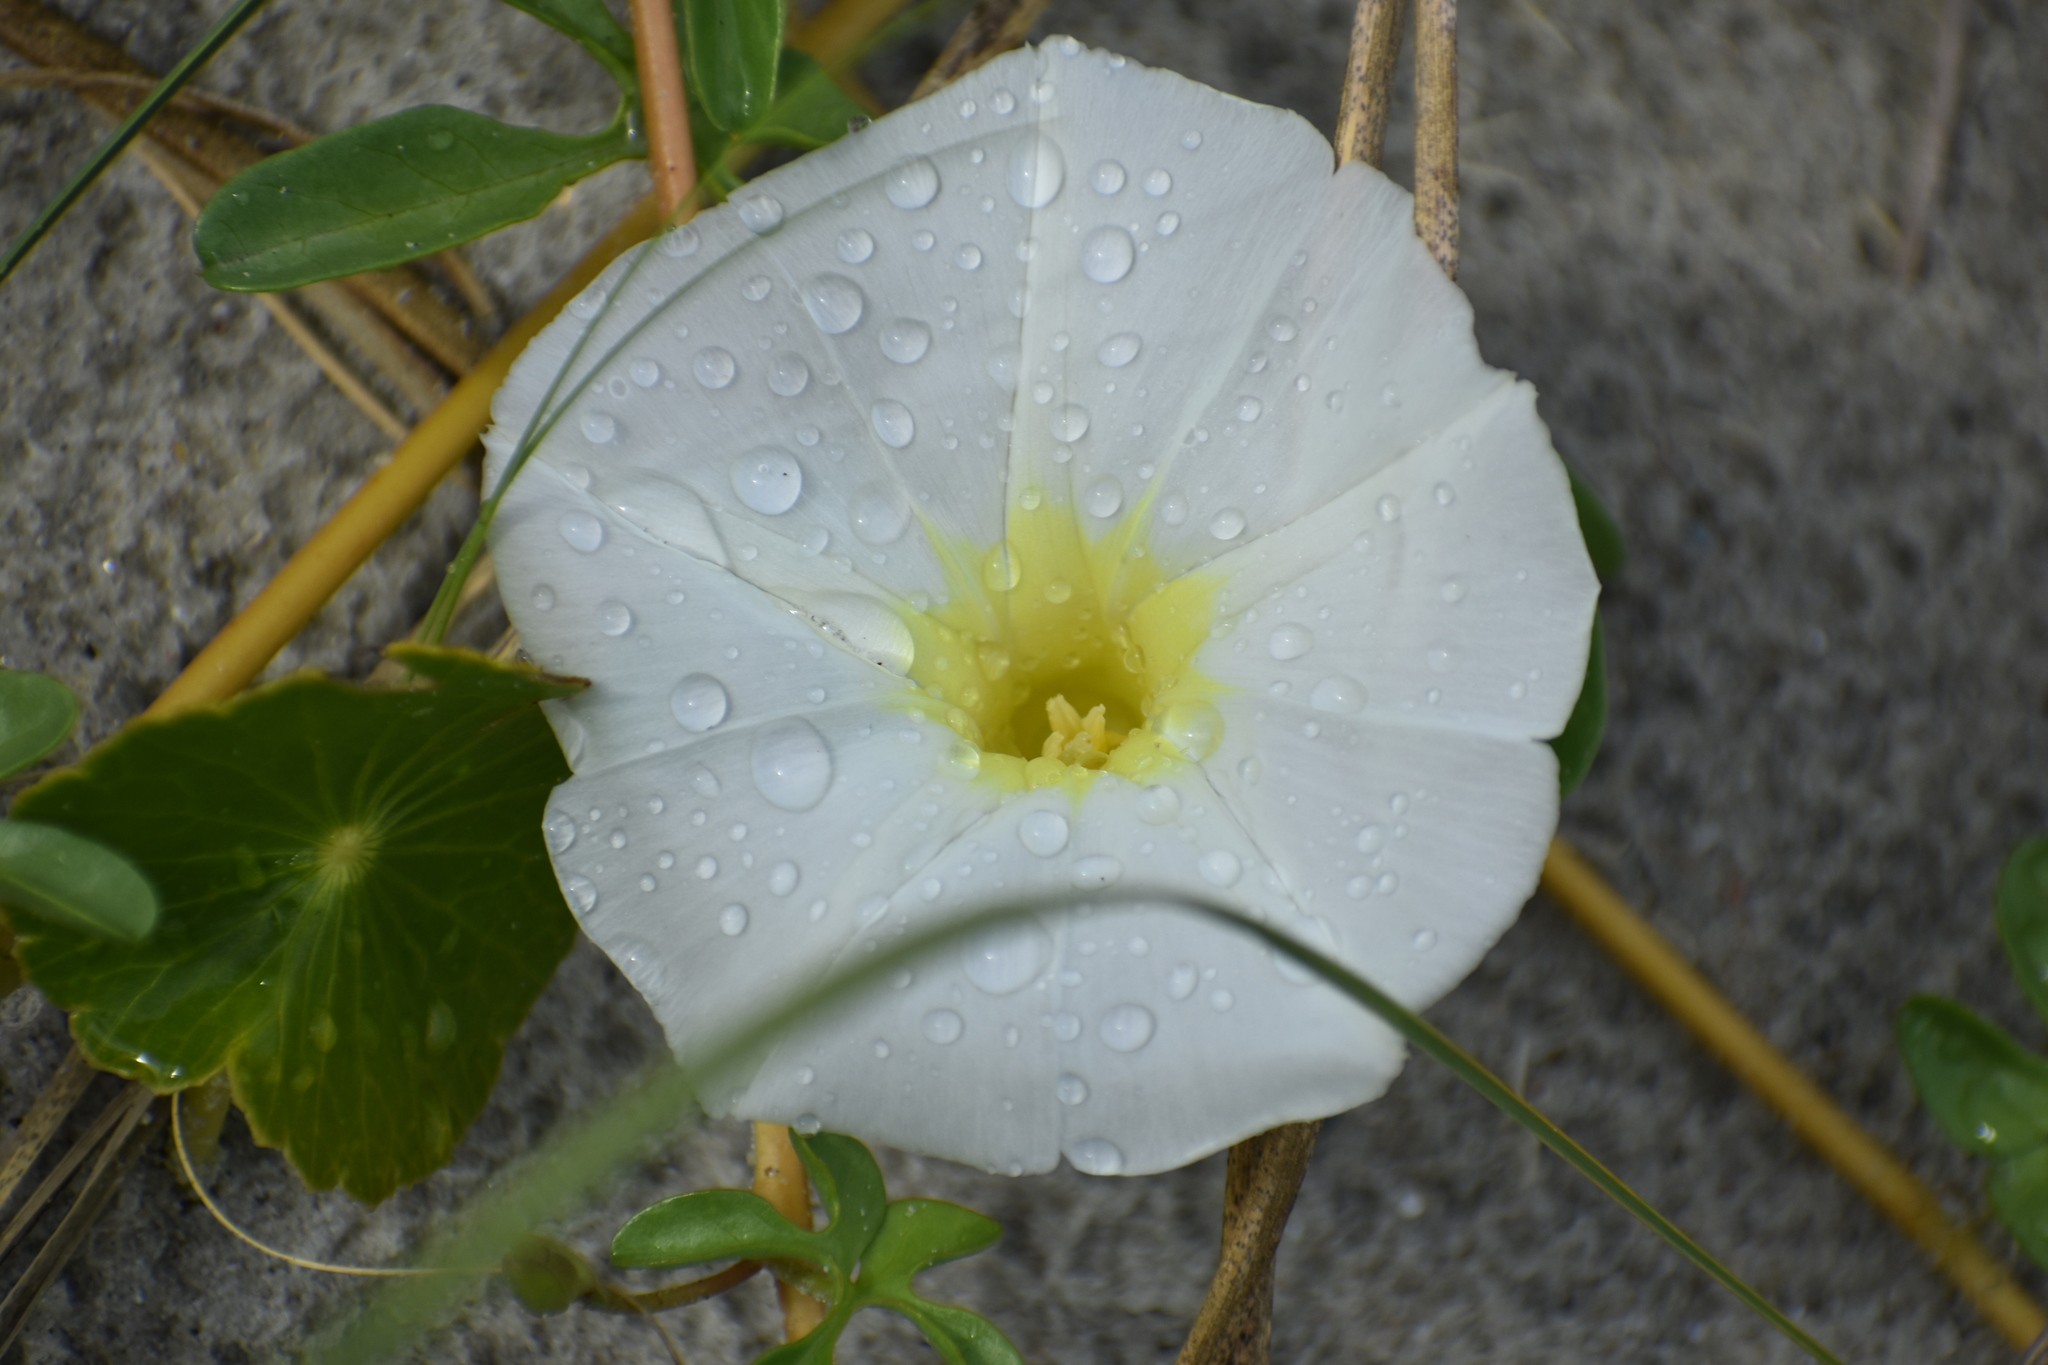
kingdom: Plantae
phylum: Tracheophyta
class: Magnoliopsida
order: Solanales
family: Convolvulaceae
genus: Ipomoea
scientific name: Ipomoea imperati
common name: Fiddle-leaf morning-glory
